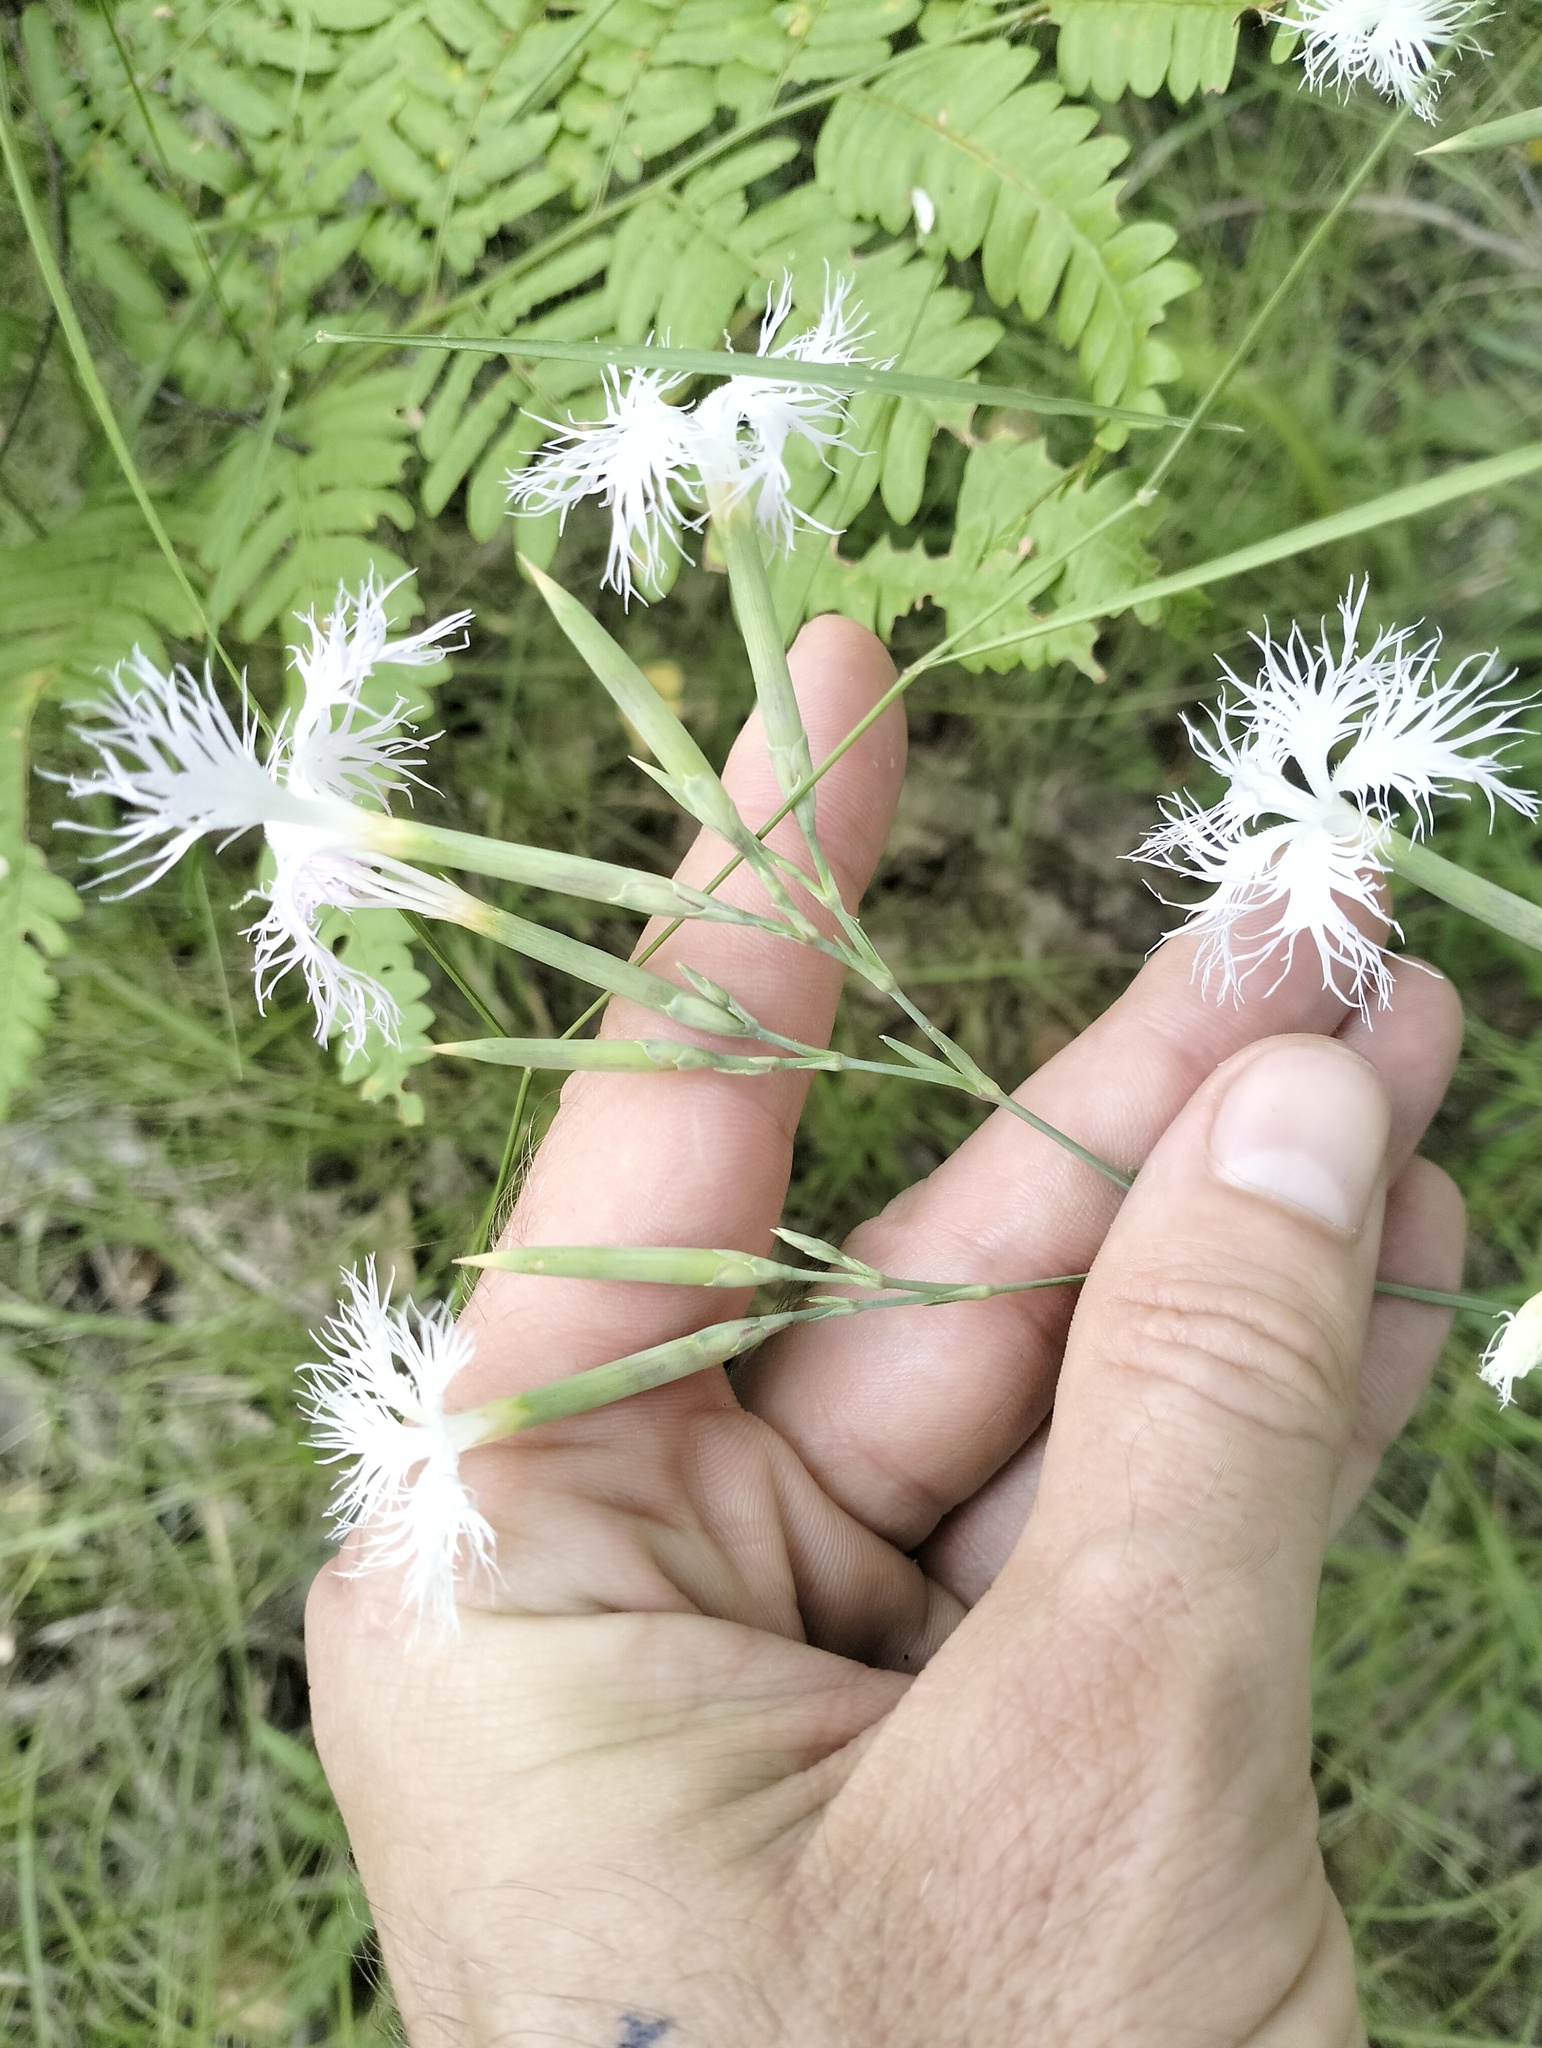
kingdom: Plantae
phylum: Tracheophyta
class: Magnoliopsida
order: Caryophyllales
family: Caryophyllaceae
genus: Dianthus
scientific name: Dianthus superbus
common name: Fringed pink
